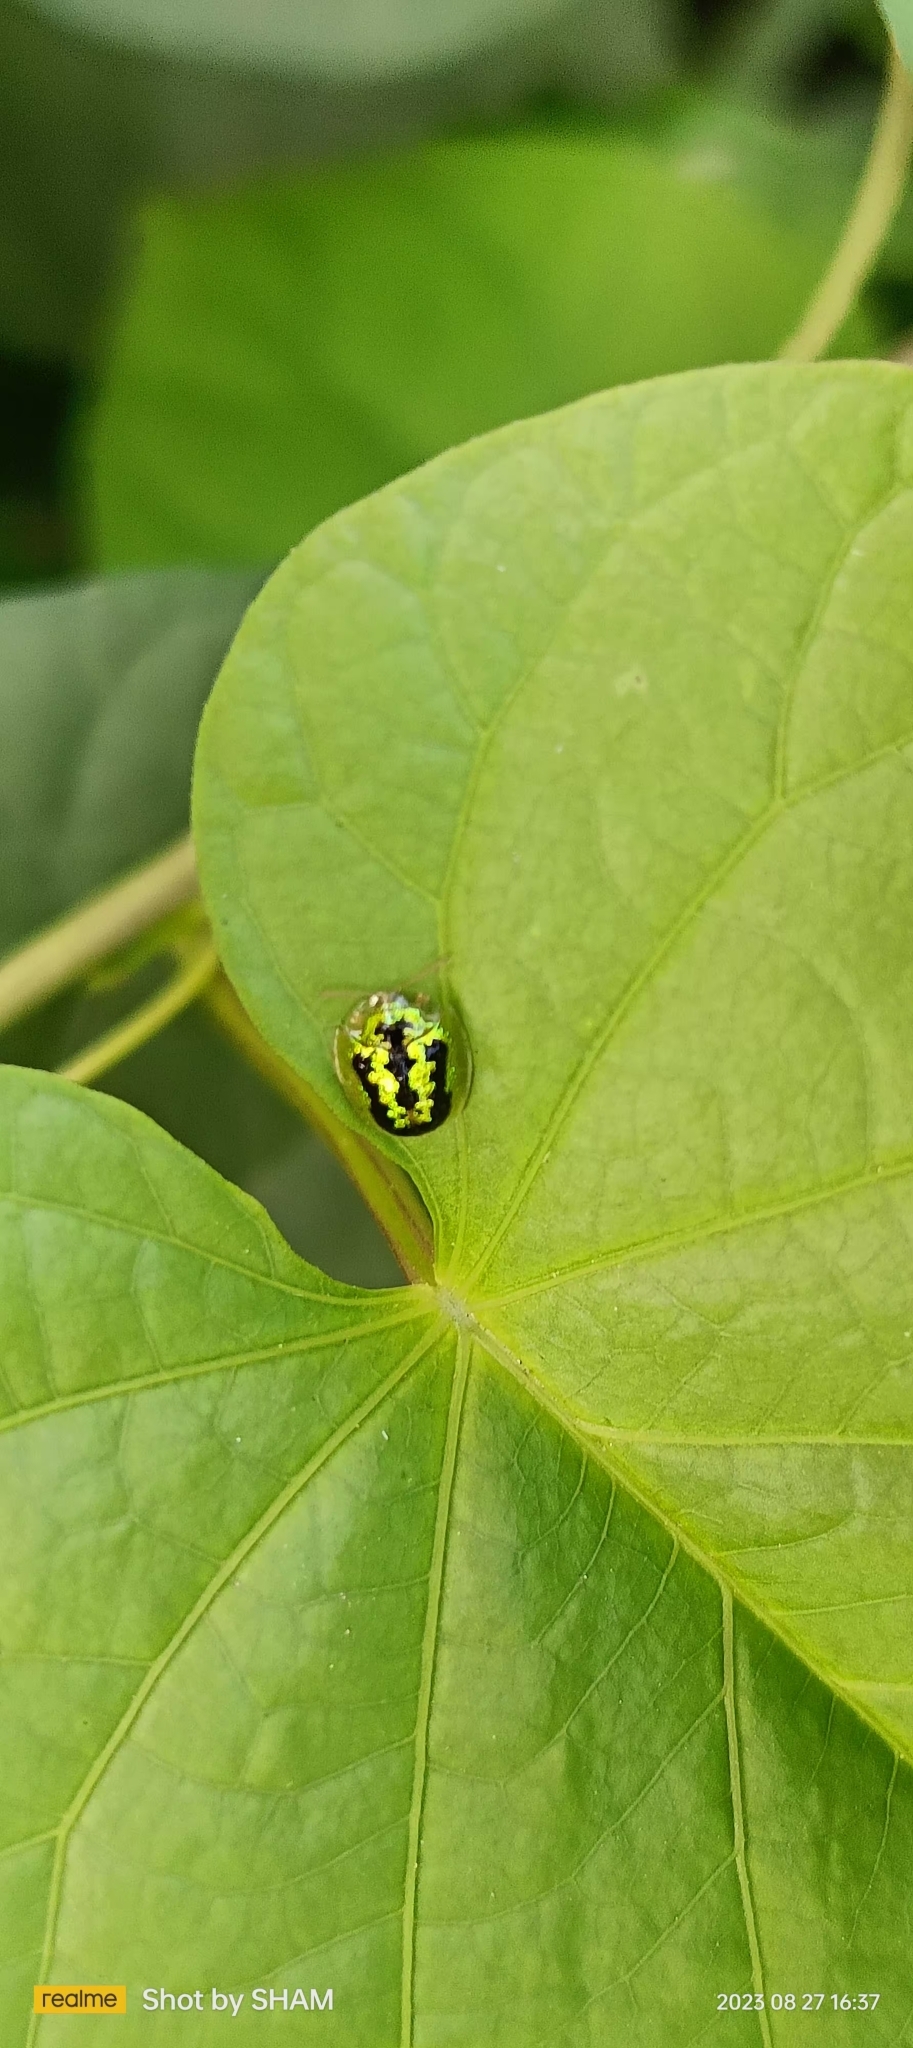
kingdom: Animalia
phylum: Arthropoda
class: Insecta
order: Coleoptera
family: Chrysomelidae
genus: Cassida
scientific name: Cassida circumdata
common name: Tortoise beetle
